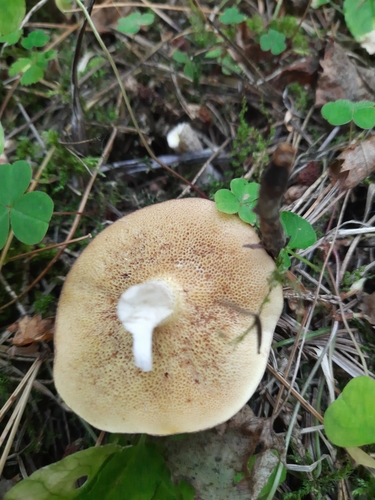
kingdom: Fungi
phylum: Basidiomycota
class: Agaricomycetes
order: Boletales
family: Suillaceae
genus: Suillus
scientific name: Suillus placidus
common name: Slippery white bolete
